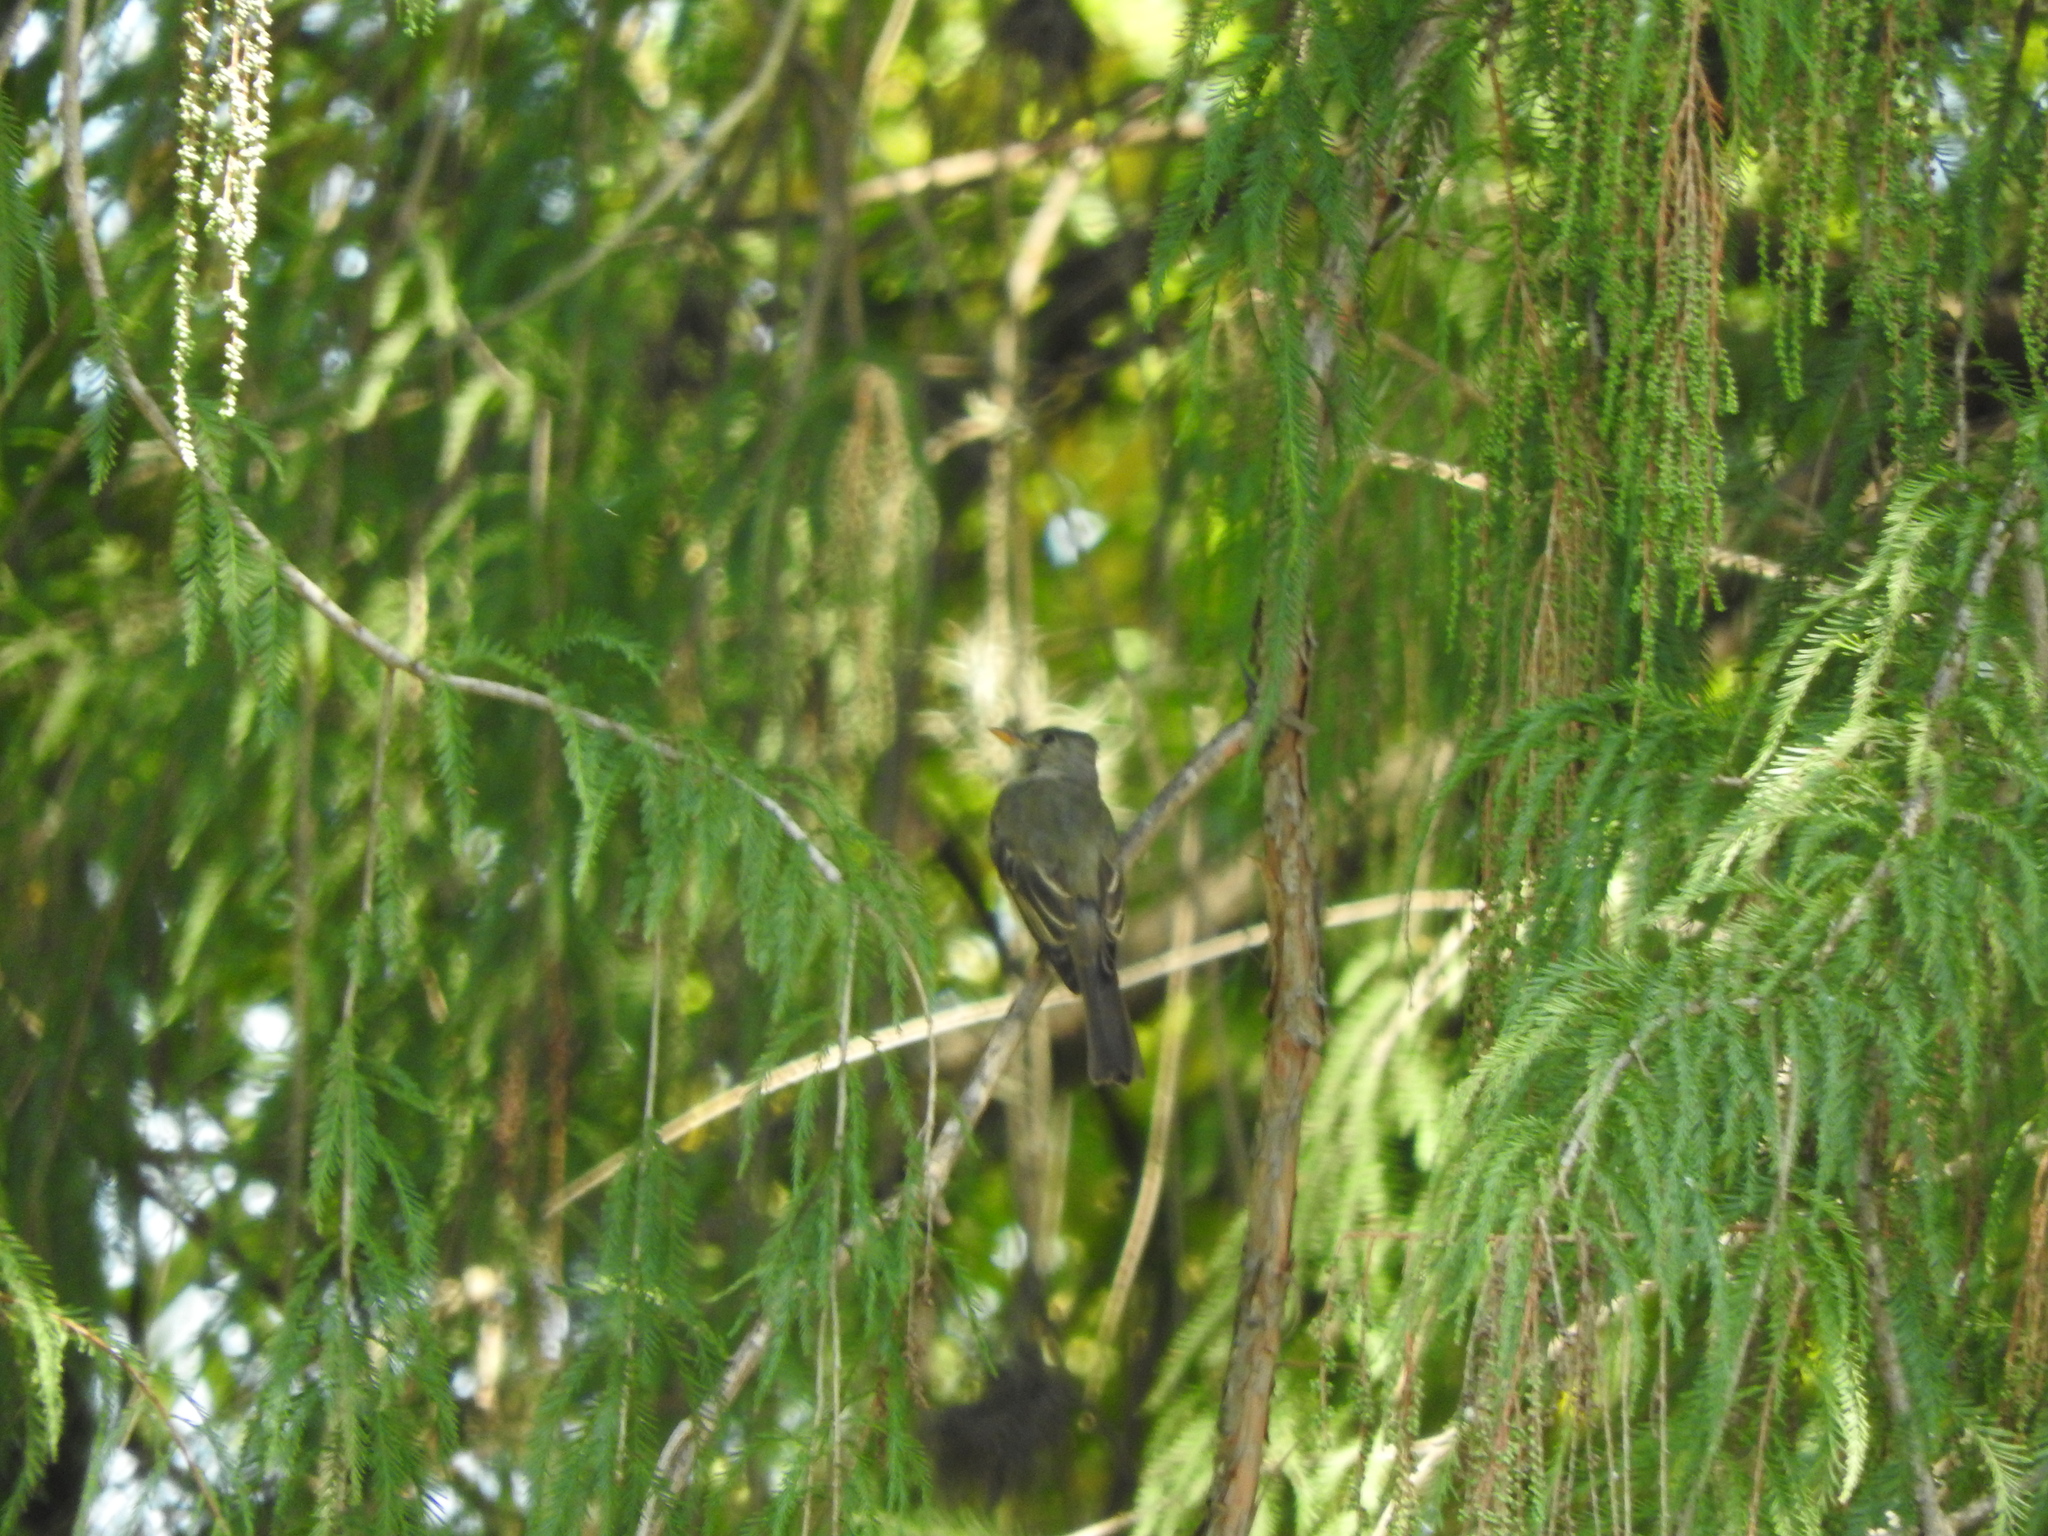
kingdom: Animalia
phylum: Chordata
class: Aves
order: Passeriformes
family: Tyrannidae
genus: Contopus
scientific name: Contopus pertinax
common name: Greater pewee
